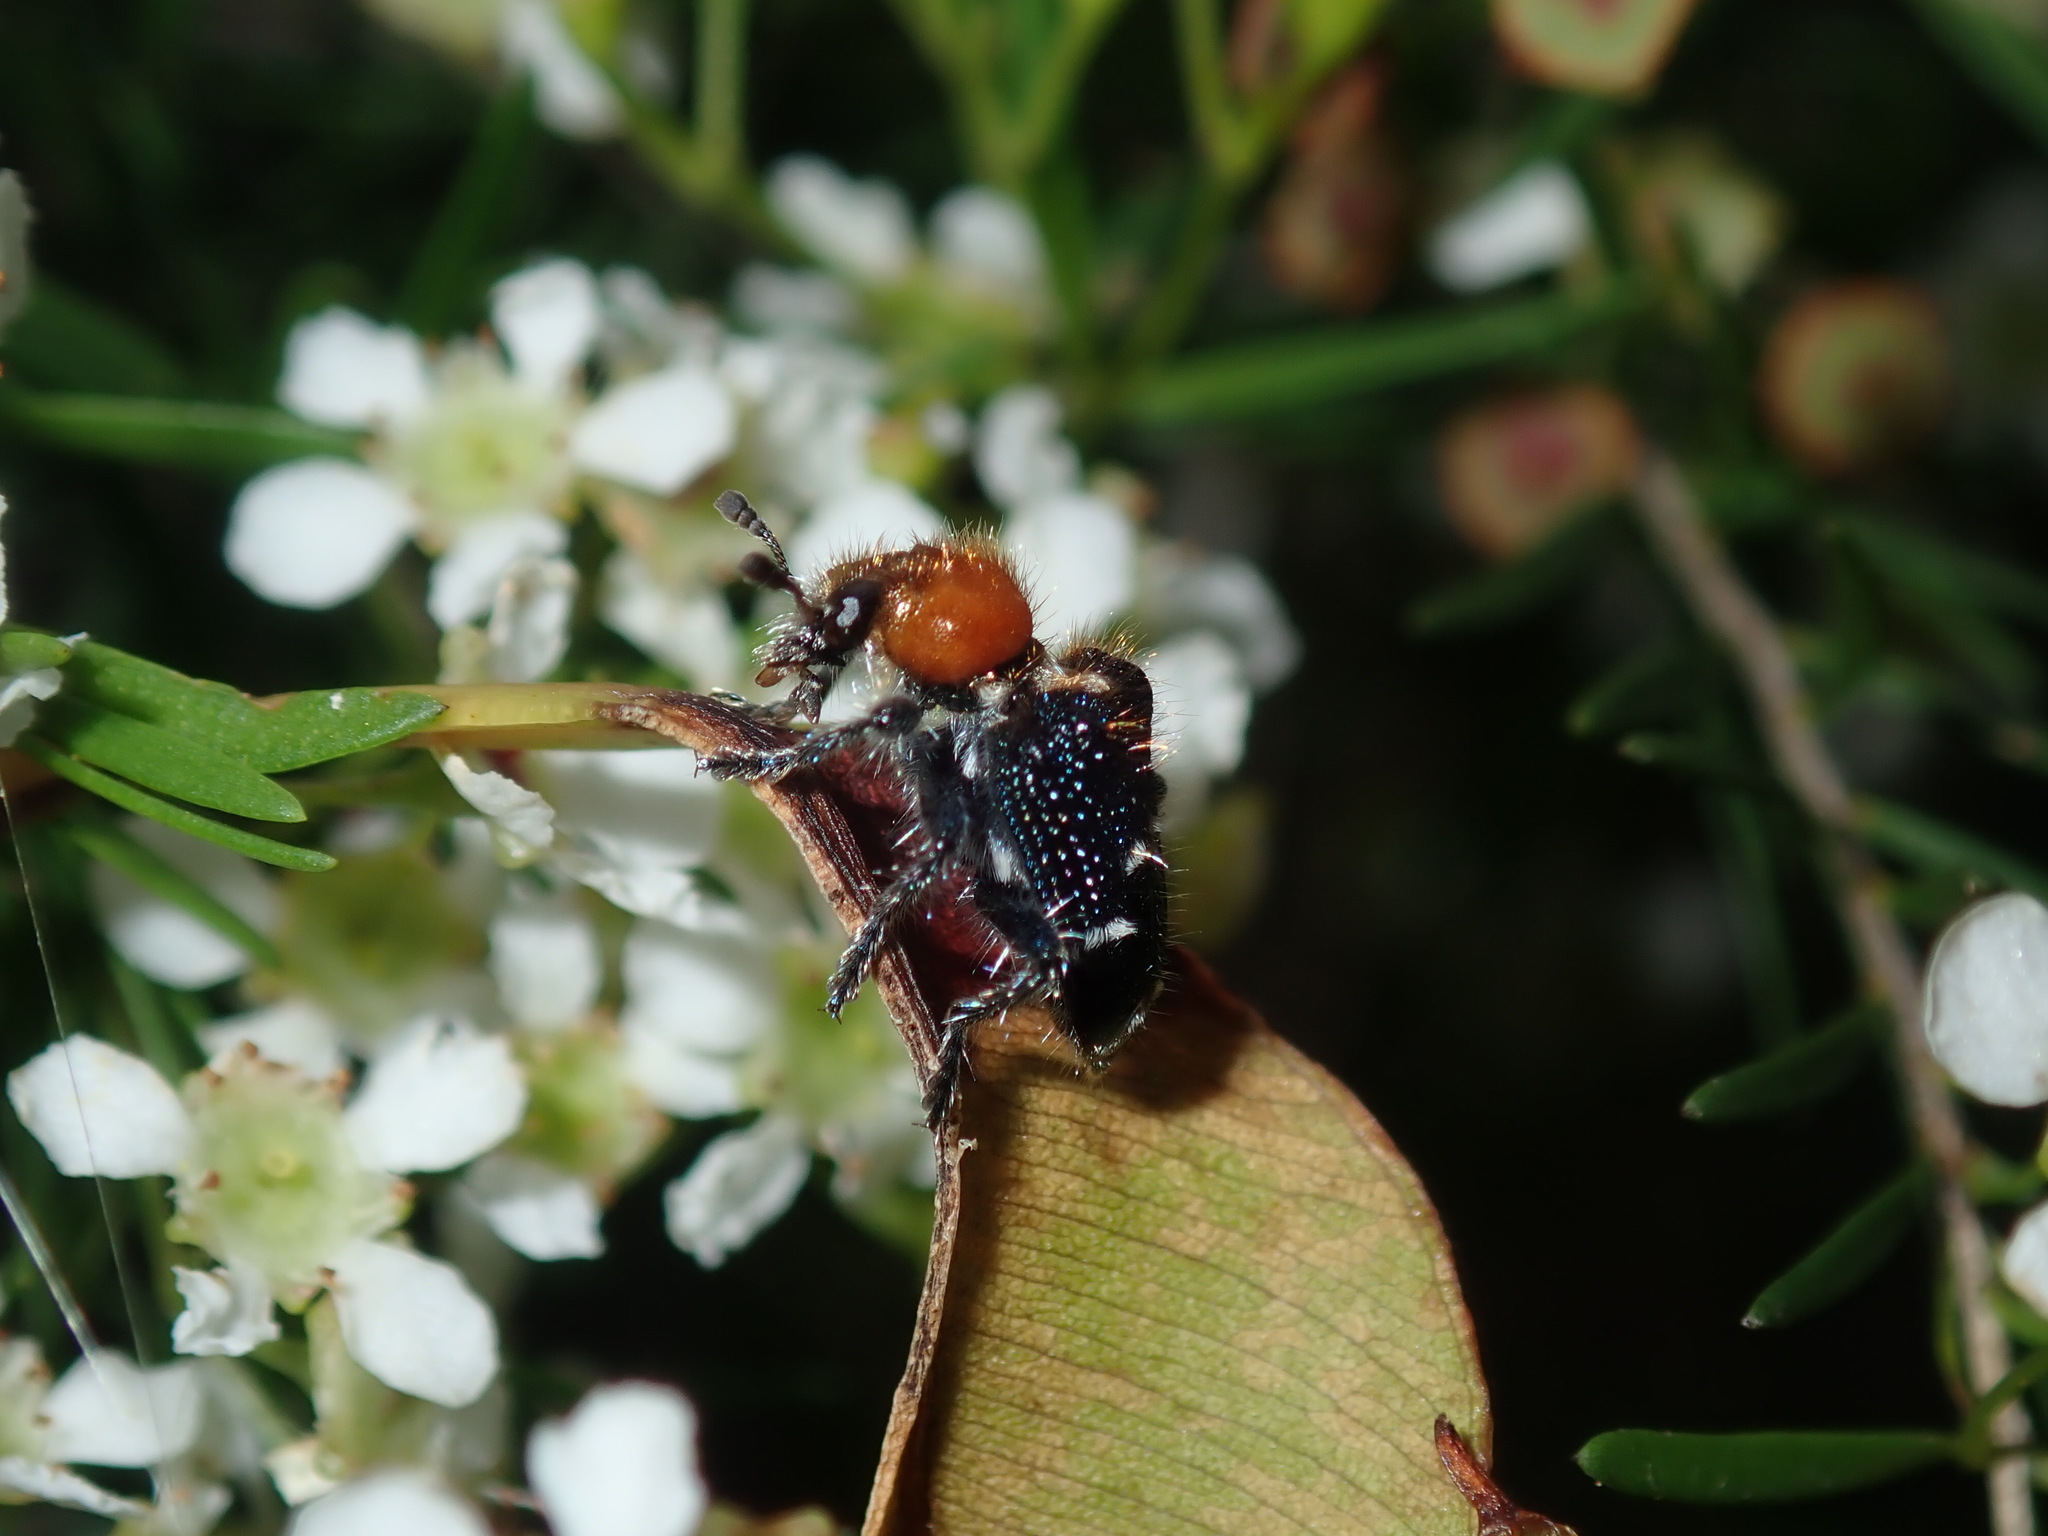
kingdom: Animalia
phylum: Arthropoda
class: Insecta
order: Coleoptera
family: Cleridae
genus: Zenithicola
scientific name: Zenithicola
